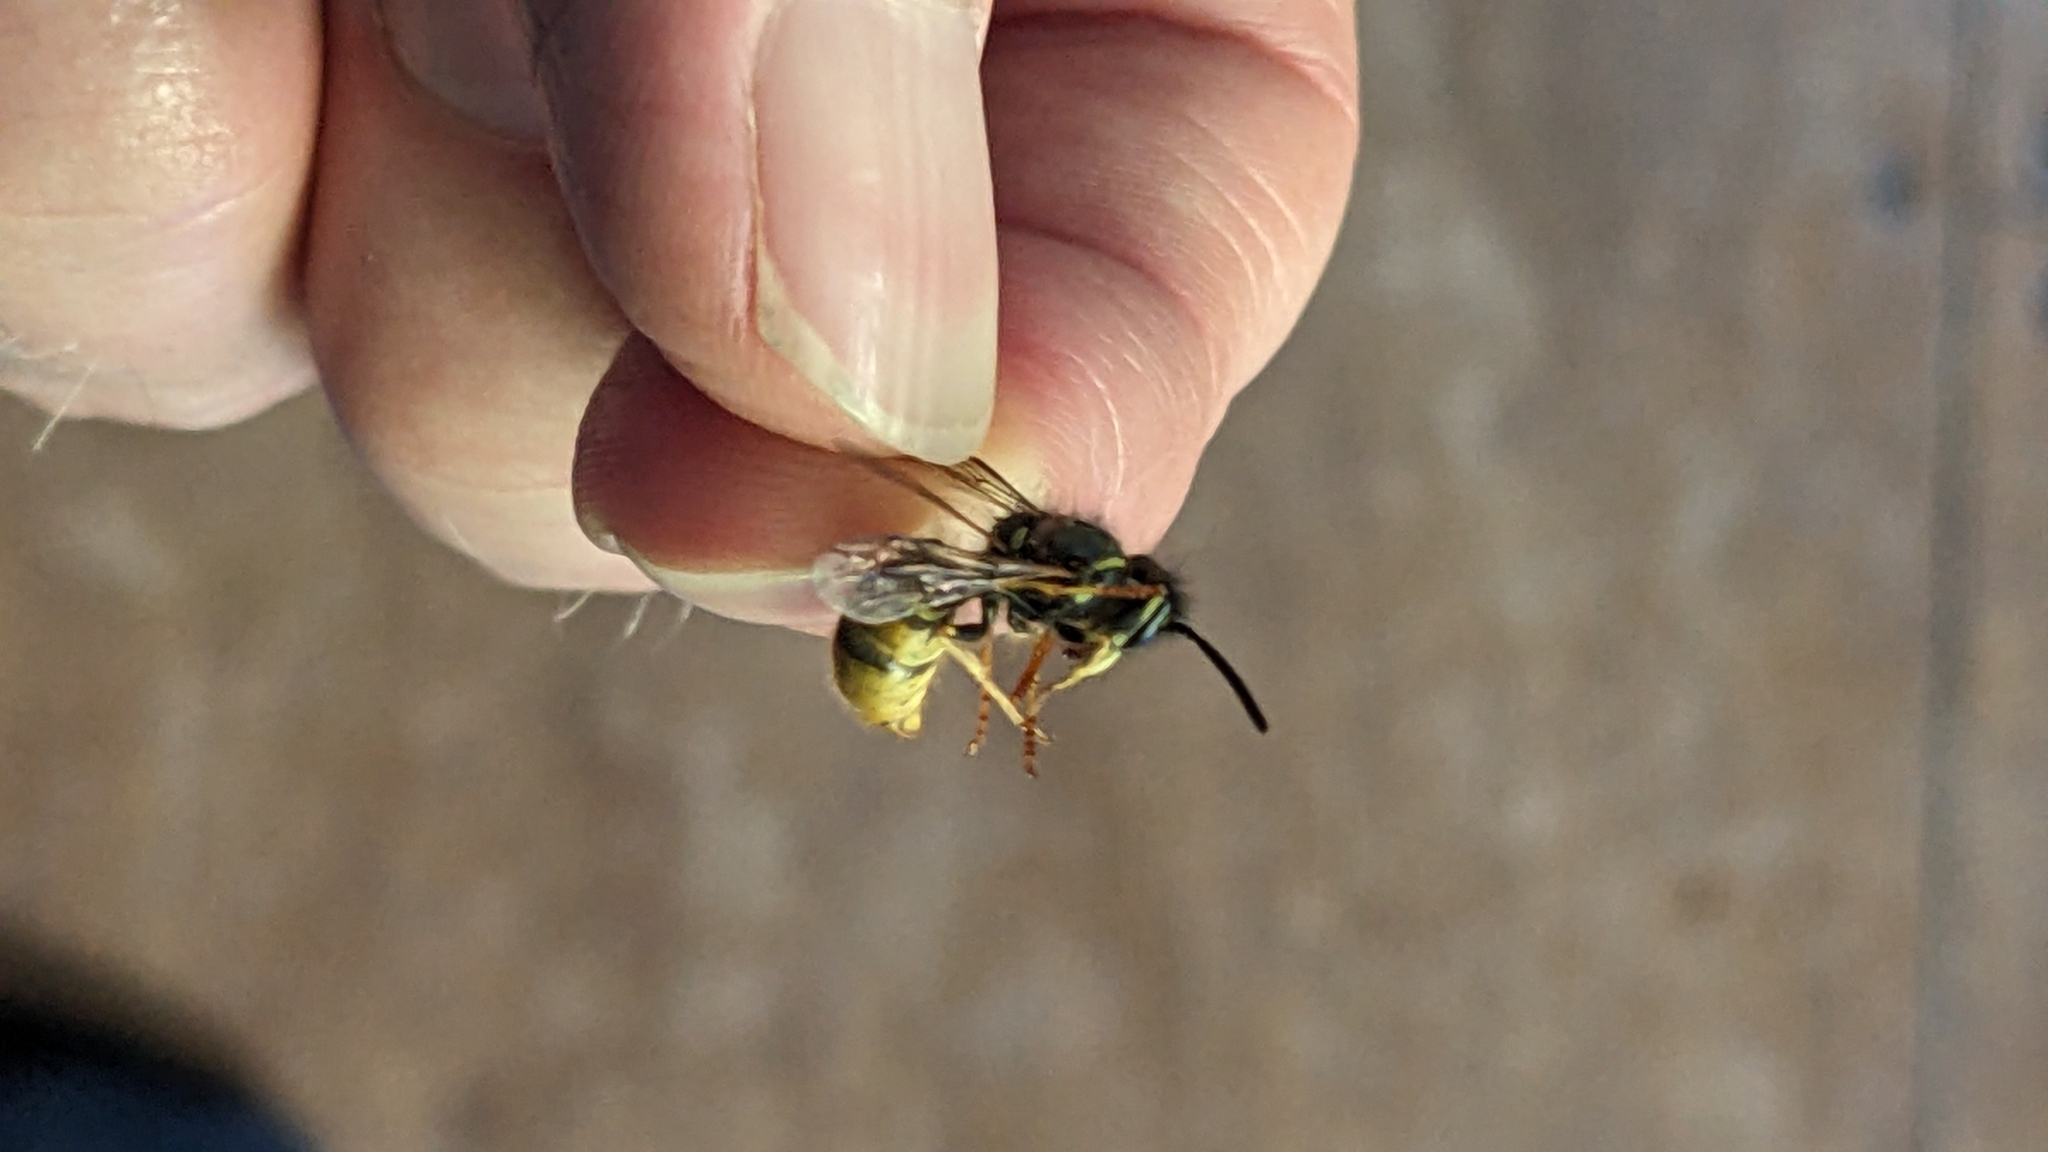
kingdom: Animalia
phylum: Arthropoda
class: Insecta
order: Hymenoptera
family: Vespidae
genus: Vespula
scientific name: Vespula vulgaris
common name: Common wasp
